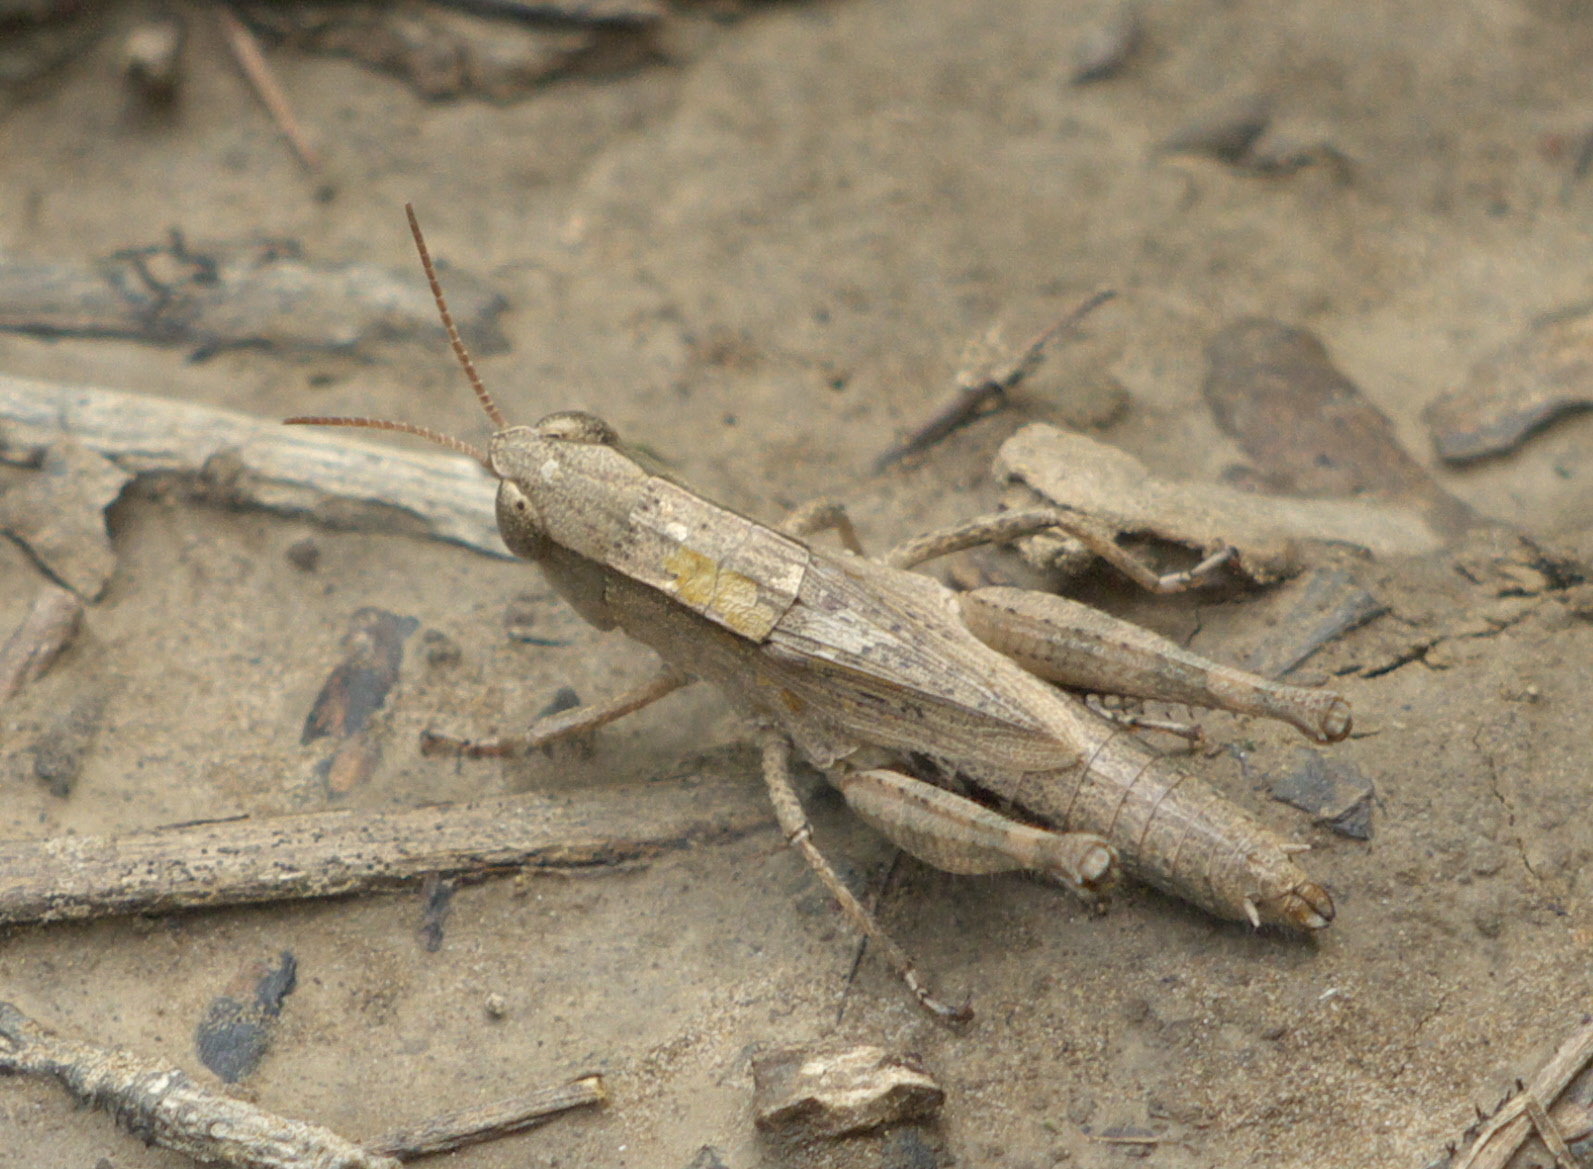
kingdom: Animalia
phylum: Arthropoda
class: Insecta
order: Orthoptera
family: Acrididae
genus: Dichromorpha
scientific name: Dichromorpha viridis
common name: Short-winged green grasshopper
